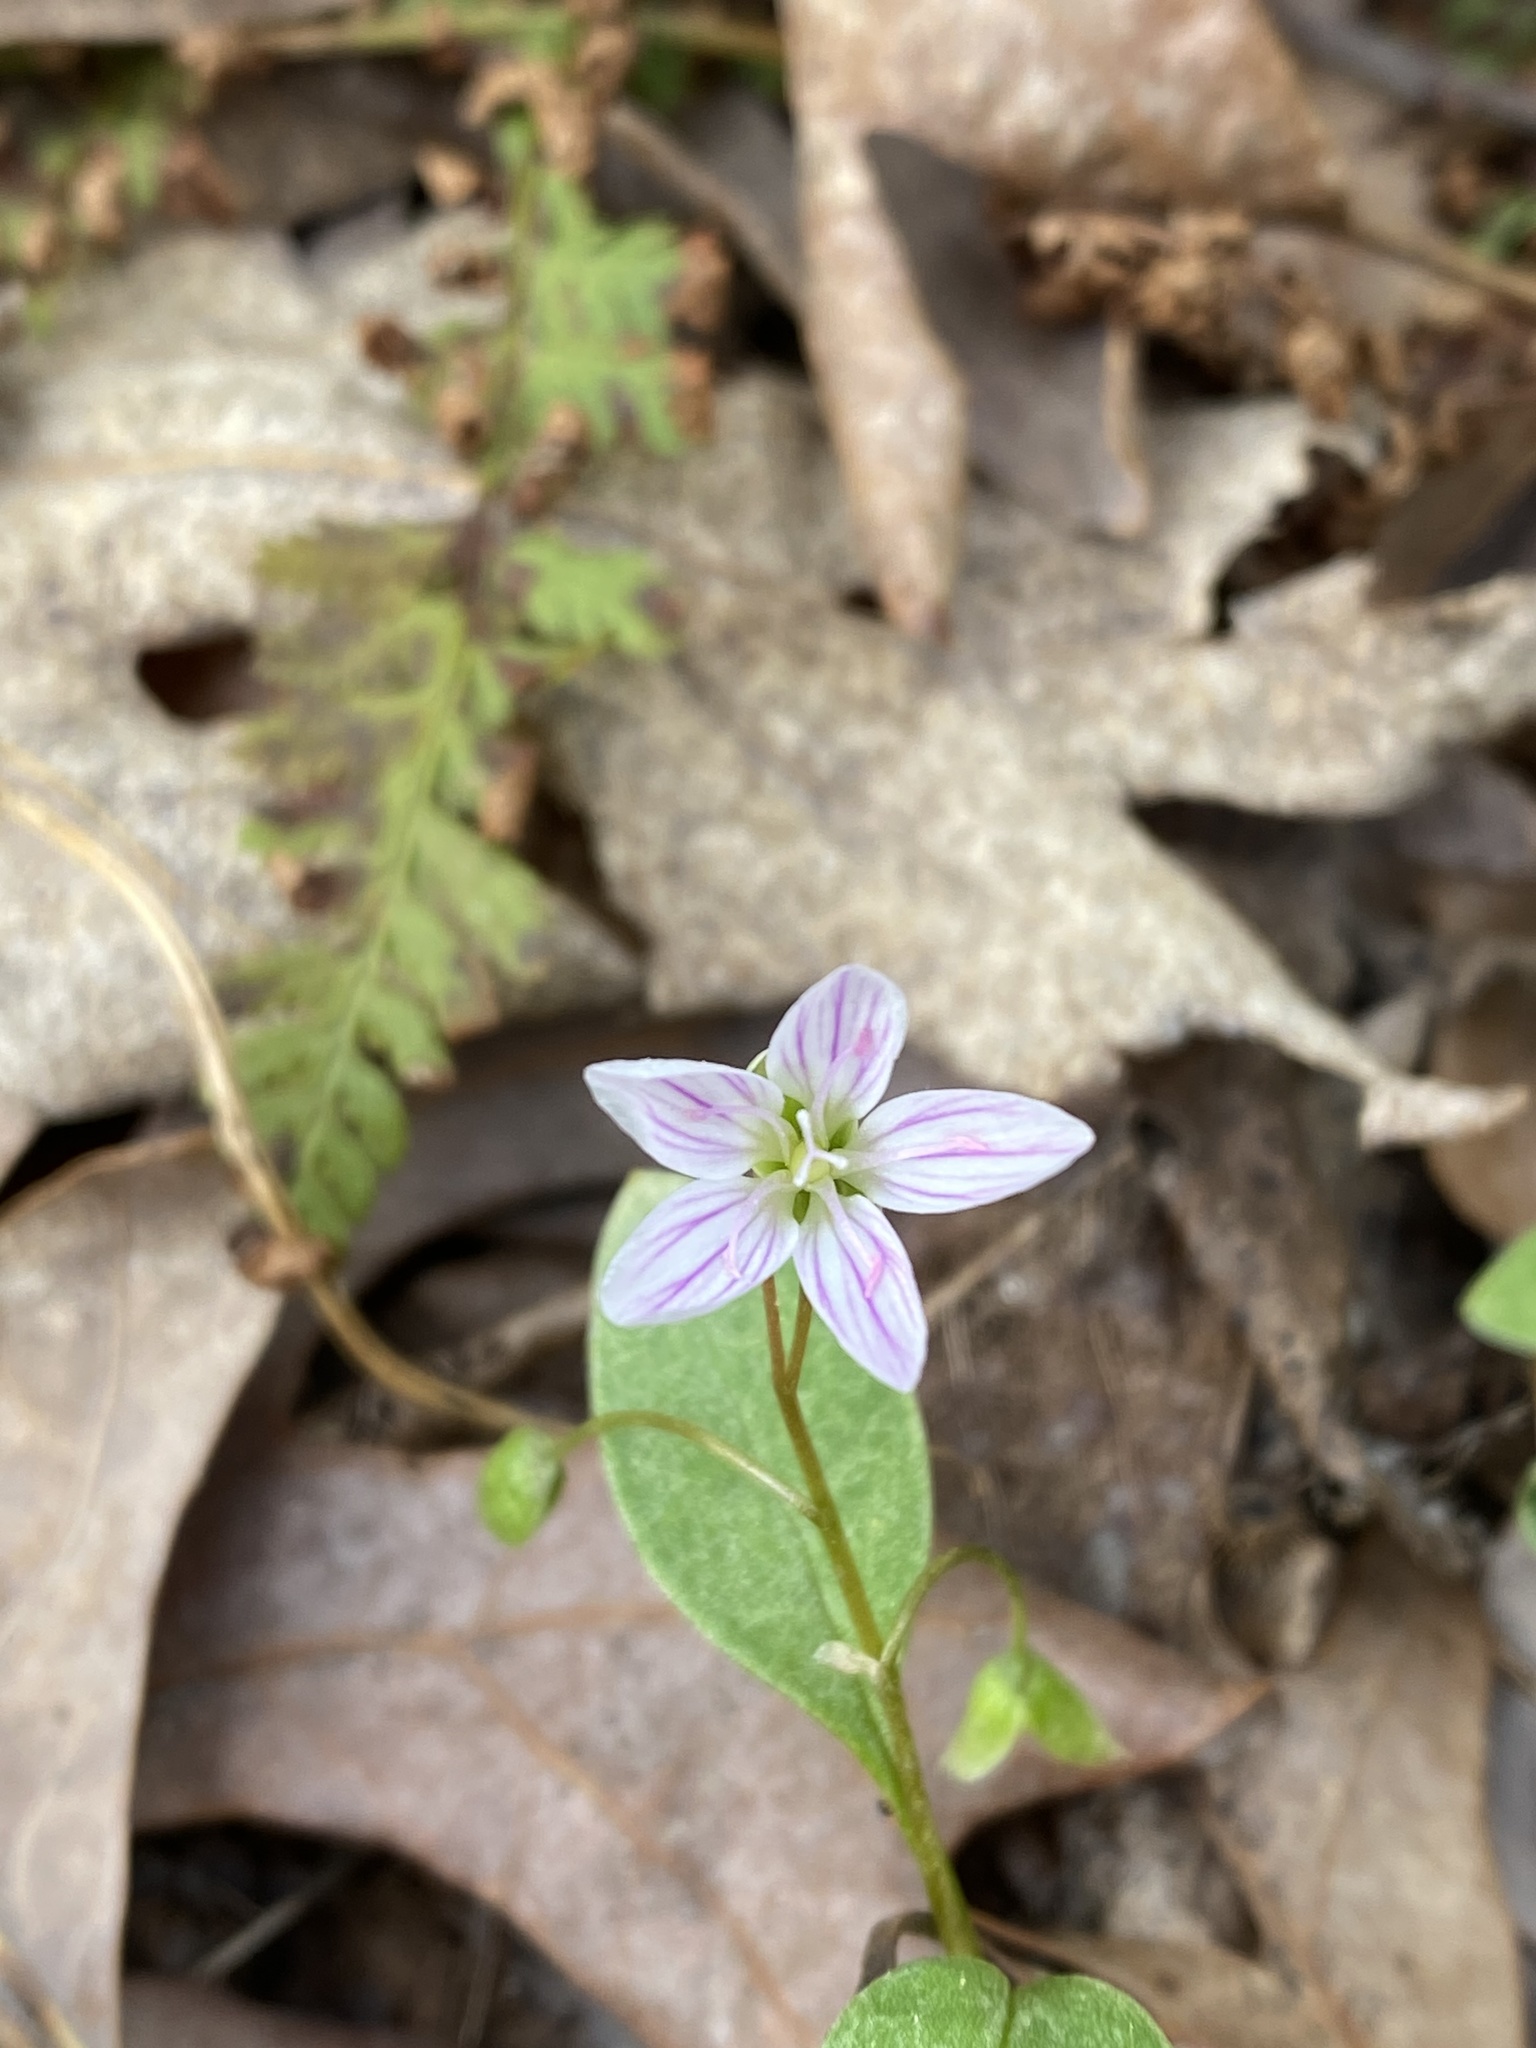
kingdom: Plantae
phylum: Tracheophyta
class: Magnoliopsida
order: Caryophyllales
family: Montiaceae
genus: Claytonia
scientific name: Claytonia caroliniana
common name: Carolina spring beauty
